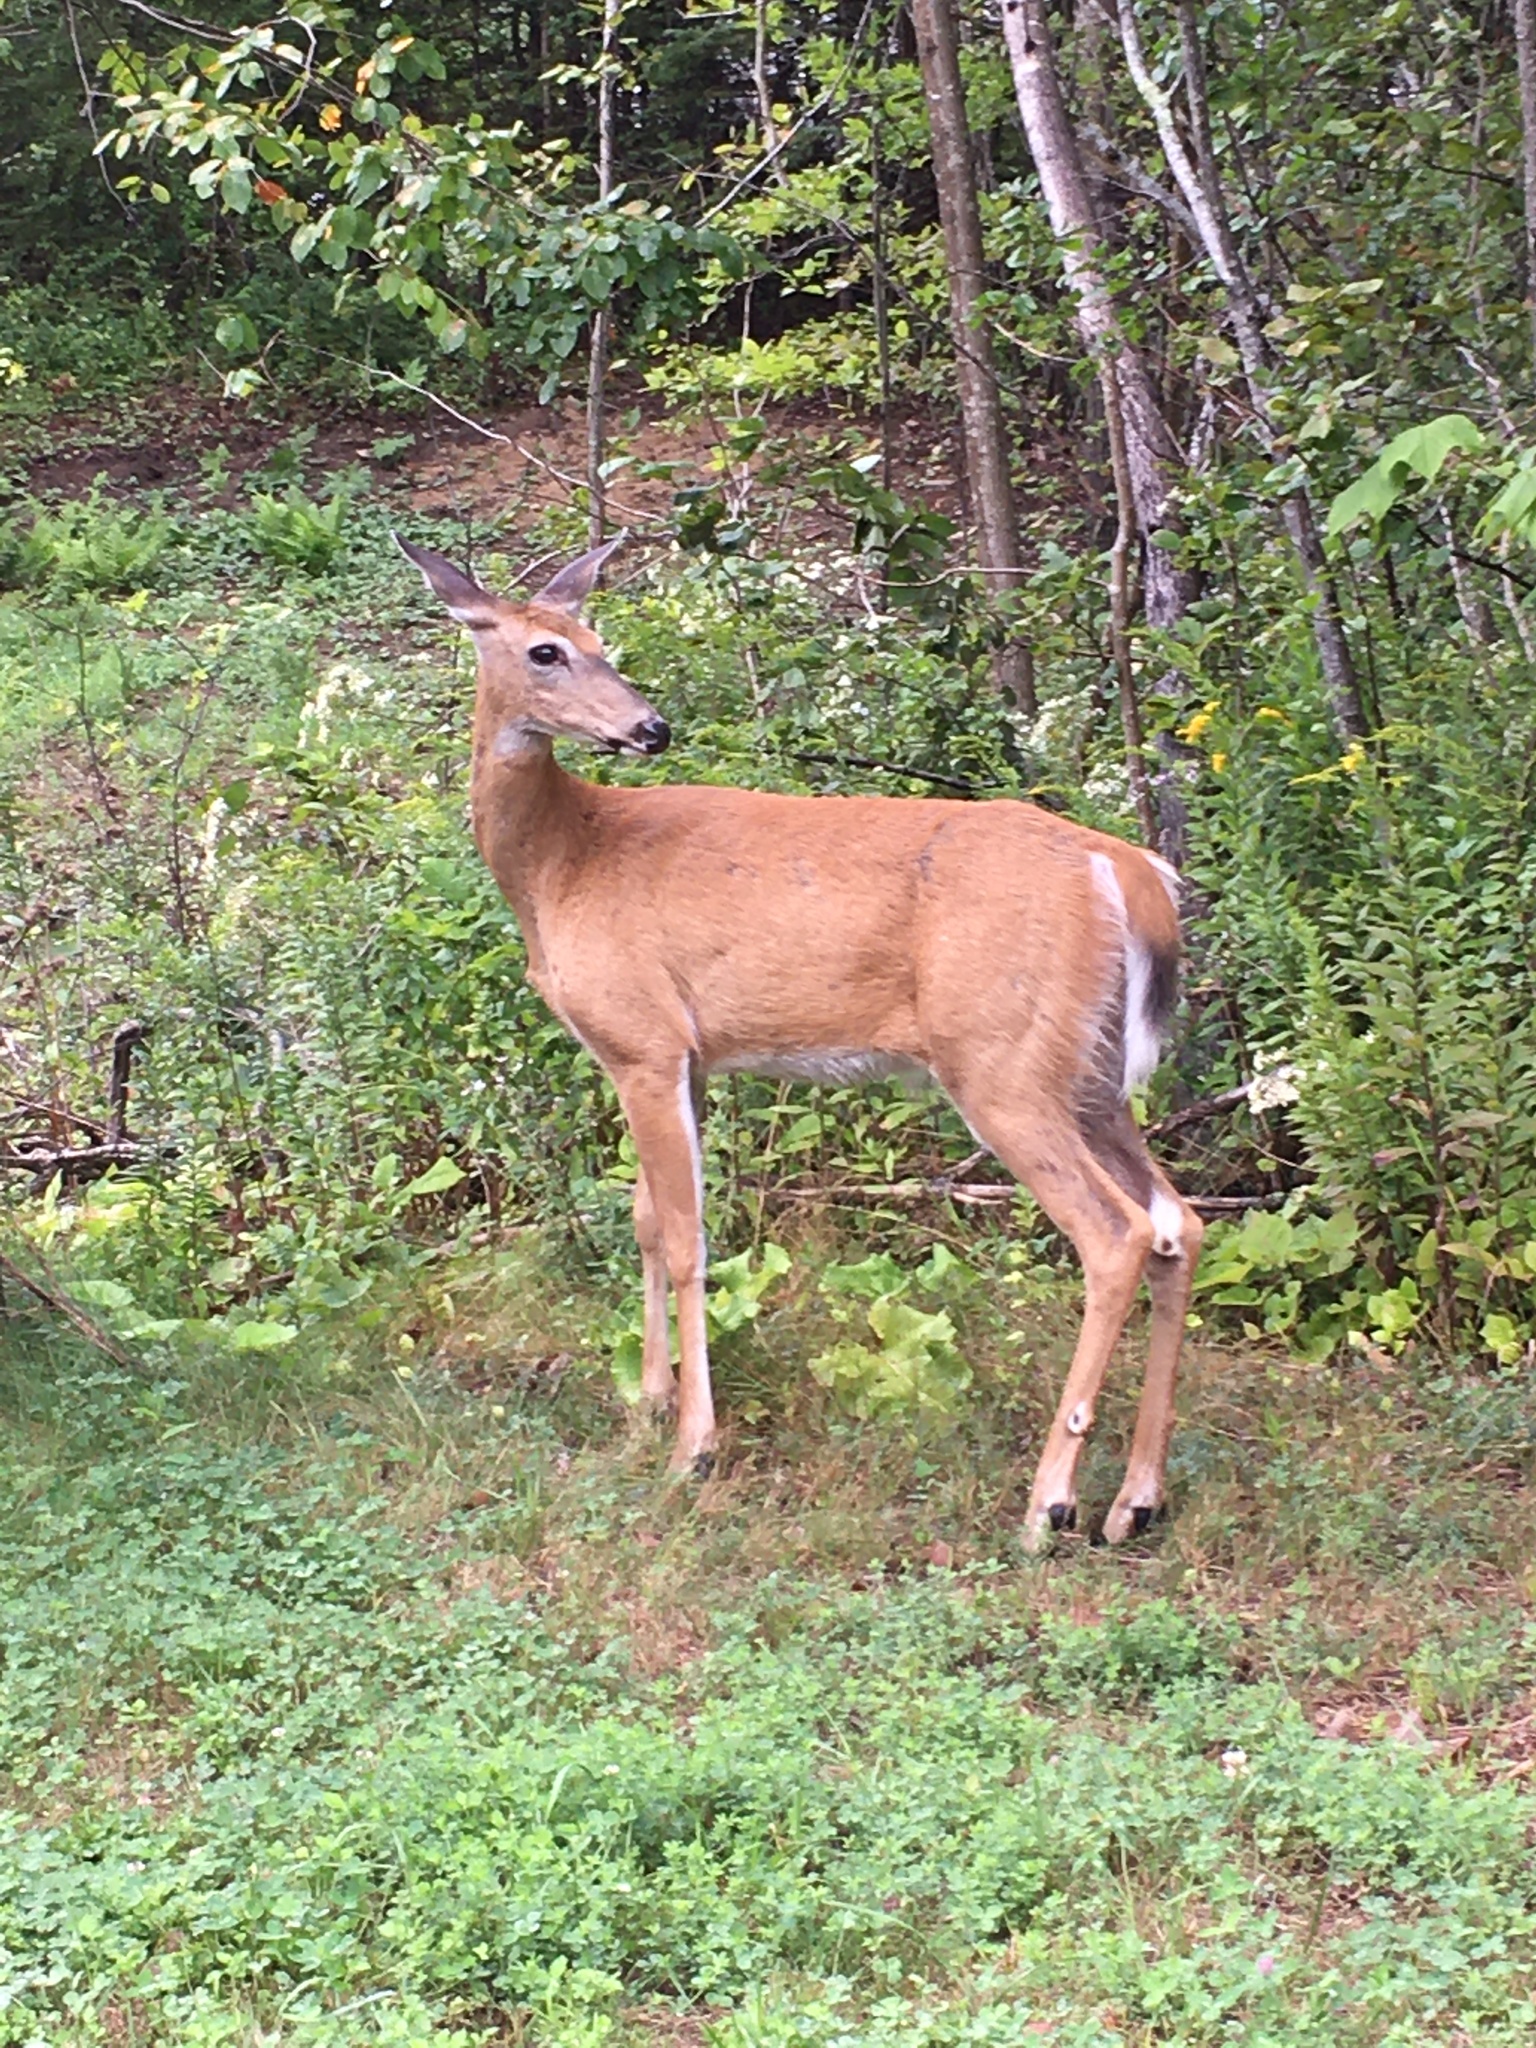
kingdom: Animalia
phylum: Chordata
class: Mammalia
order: Artiodactyla
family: Cervidae
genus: Odocoileus
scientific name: Odocoileus virginianus
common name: White-tailed deer
